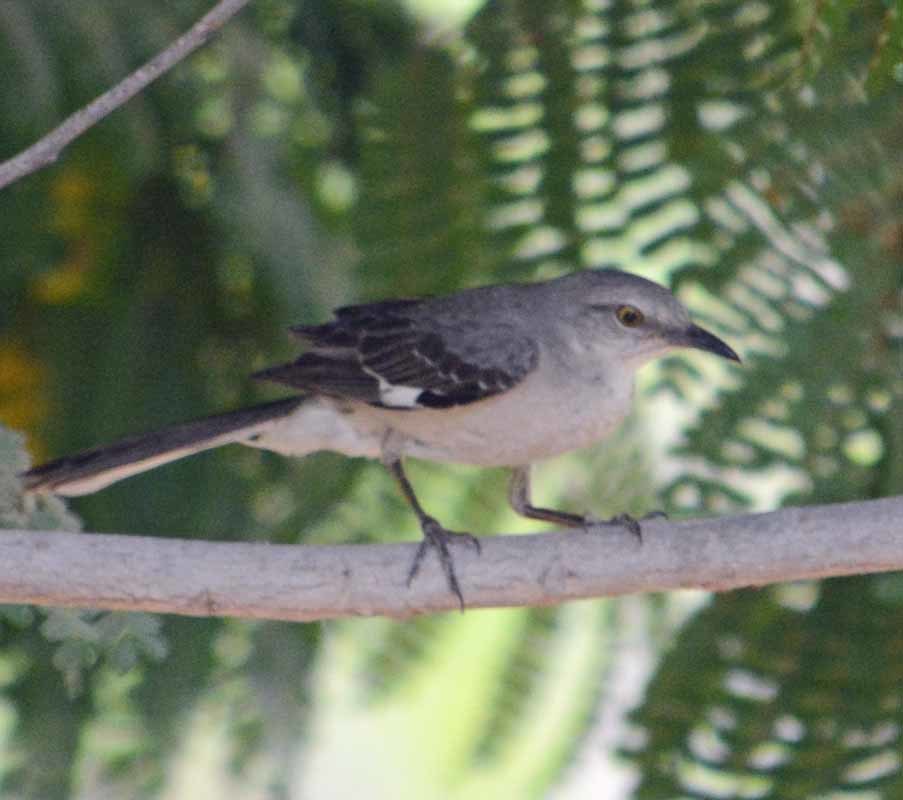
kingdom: Animalia
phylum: Chordata
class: Aves
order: Passeriformes
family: Mimidae
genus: Mimus
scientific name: Mimus polyglottos
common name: Northern mockingbird
